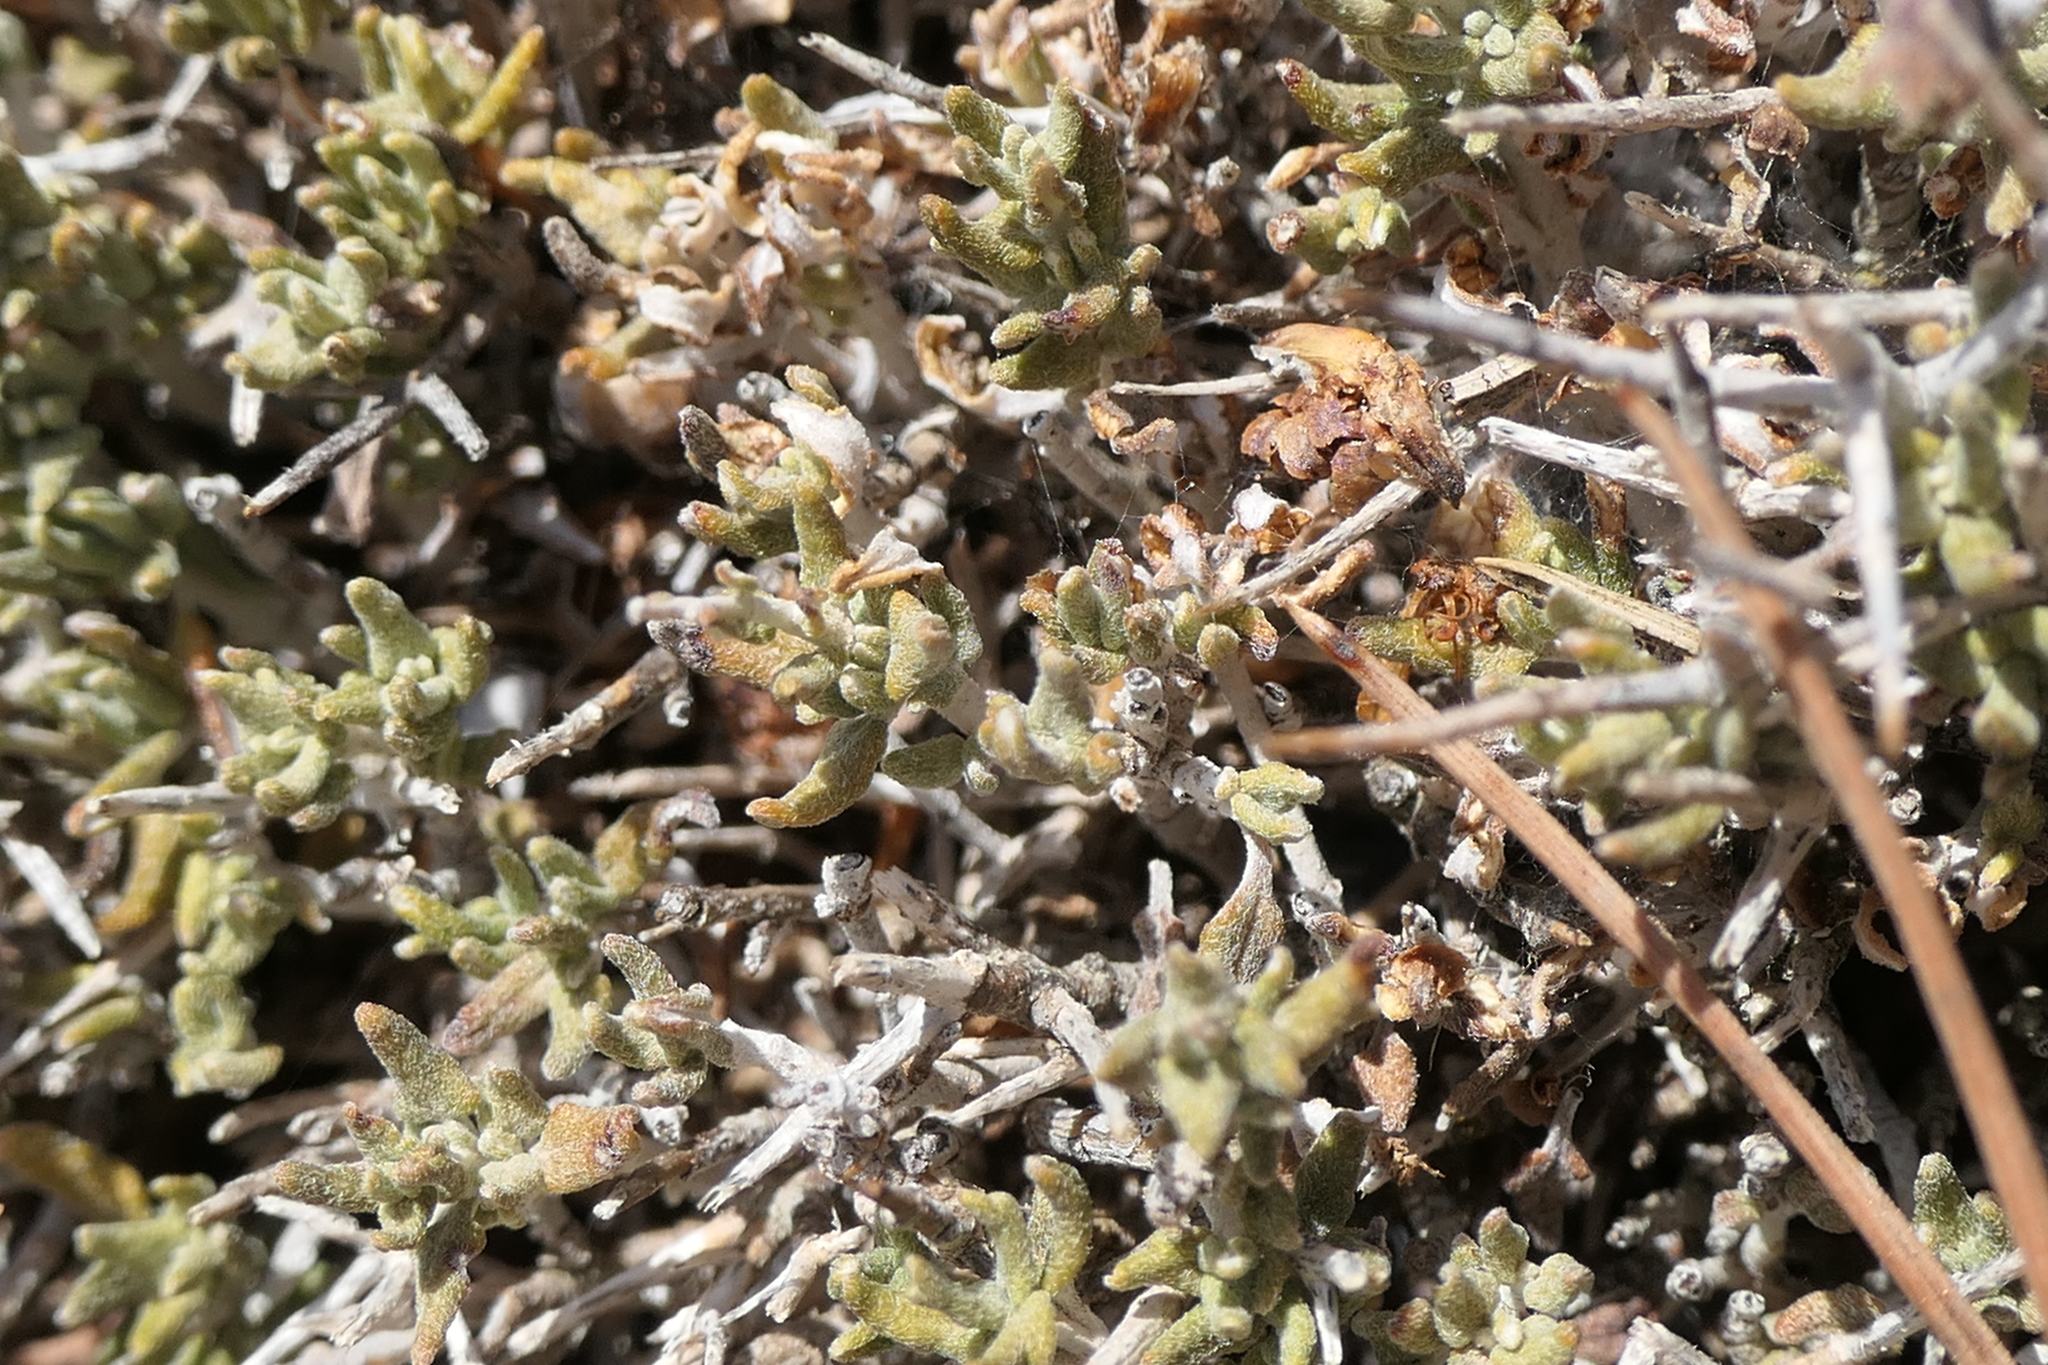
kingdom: Plantae
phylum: Tracheophyta
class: Magnoliopsida
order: Lamiales
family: Lamiaceae
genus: Teucrium
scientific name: Teucrium balearicum
